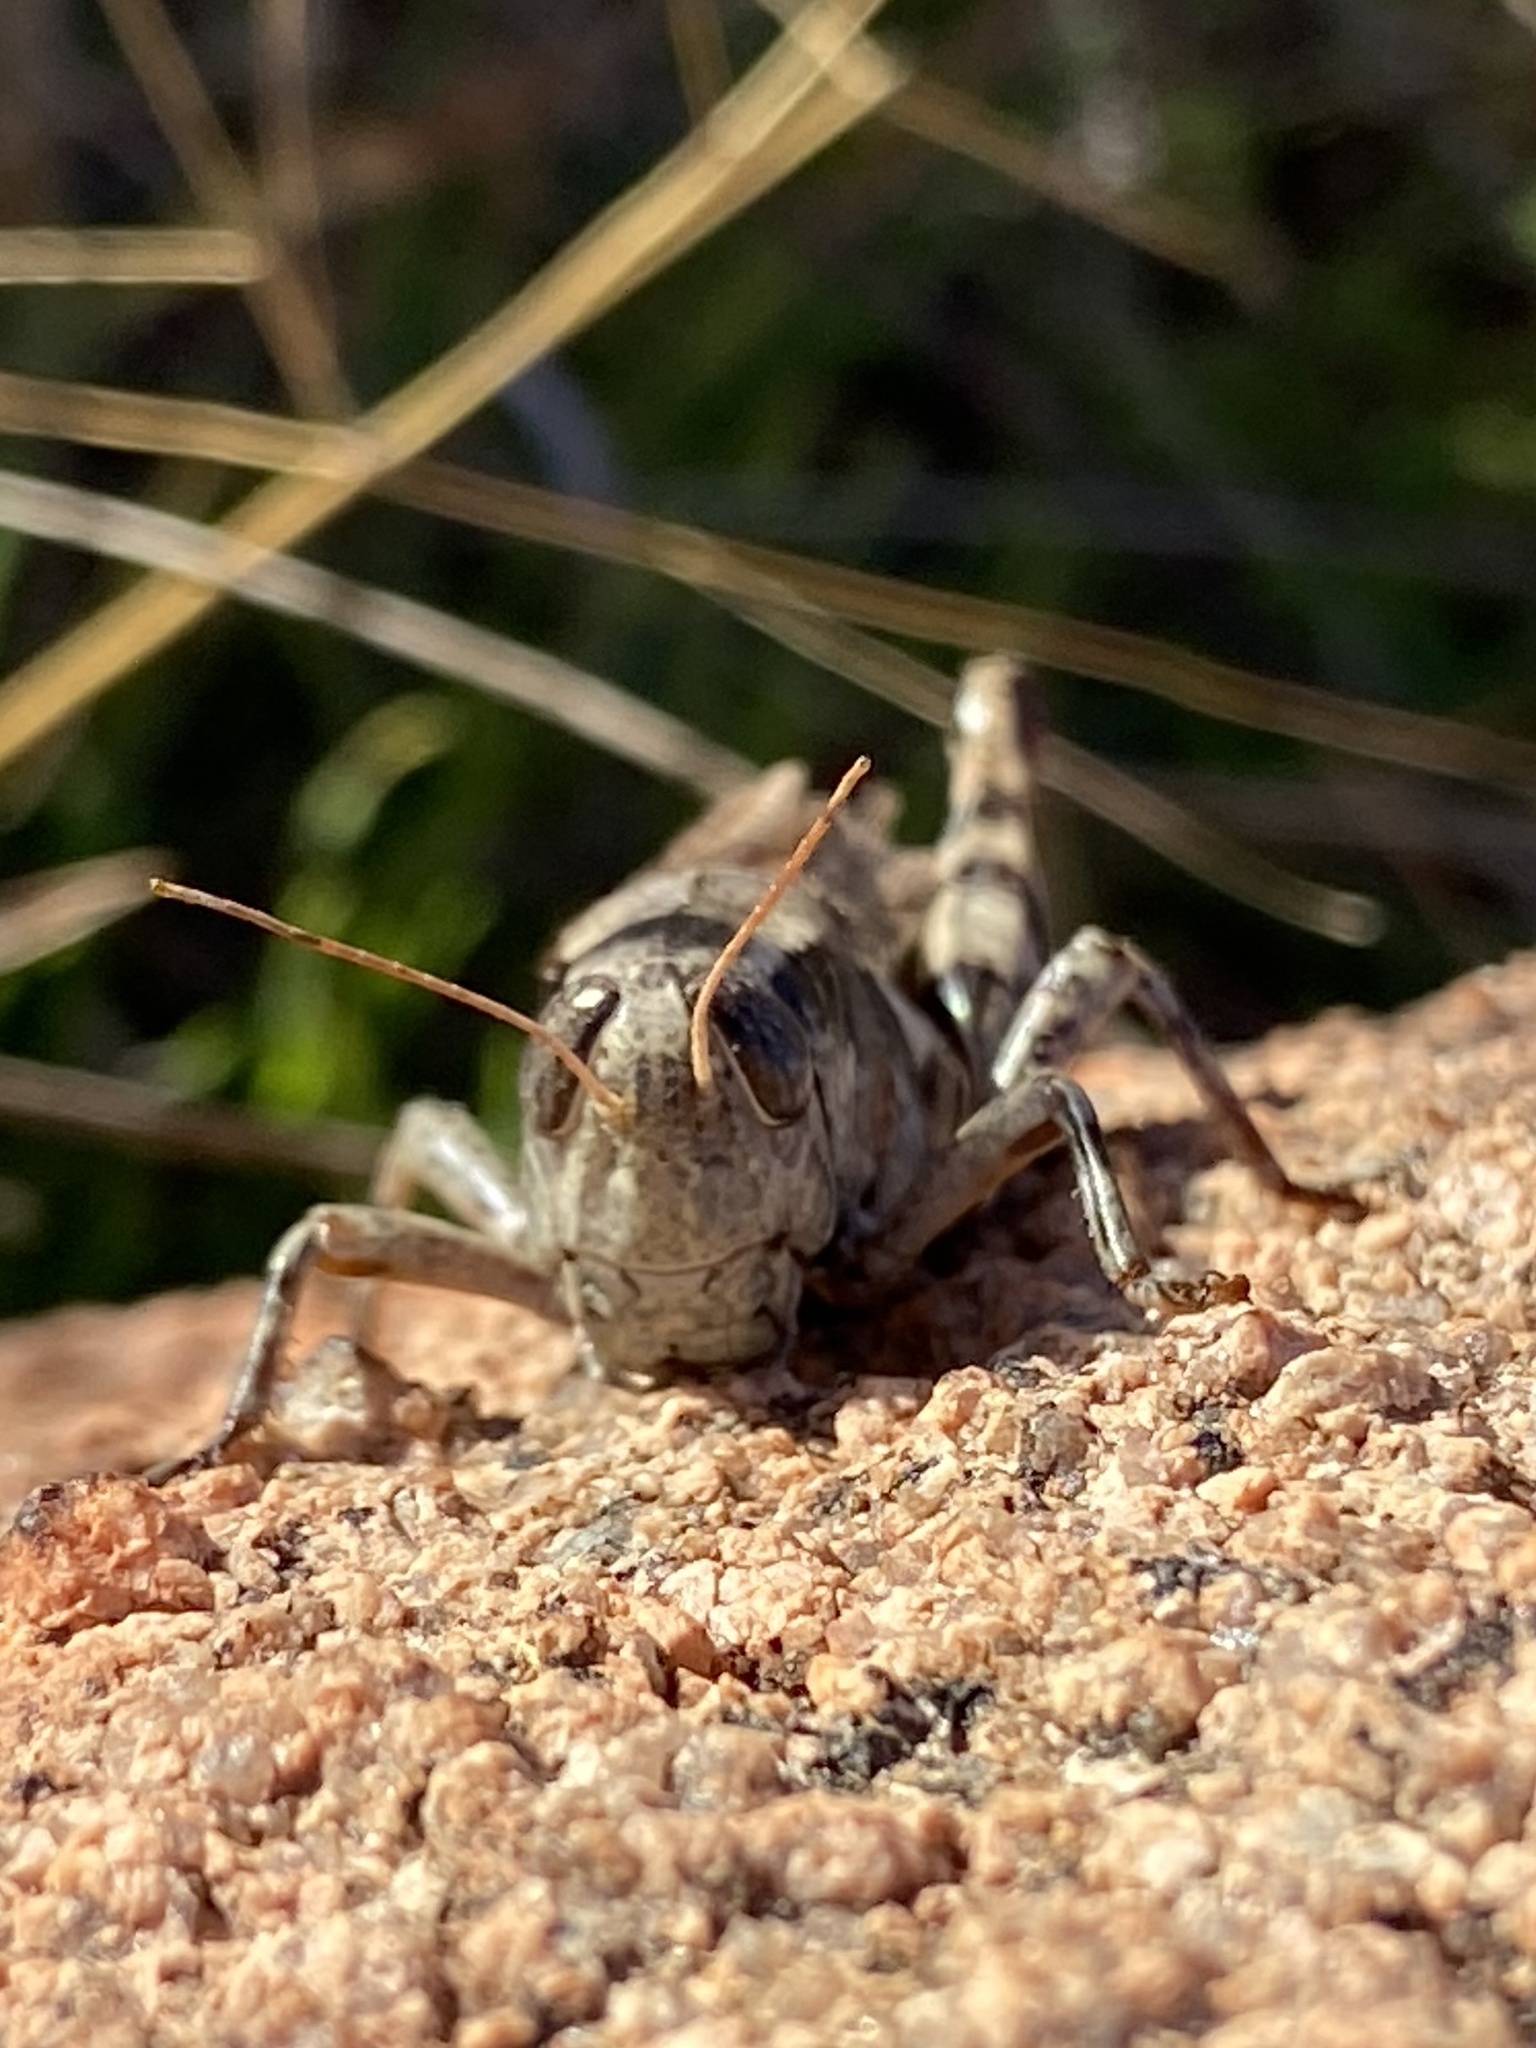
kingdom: Animalia
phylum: Arthropoda
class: Insecta
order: Orthoptera
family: Acrididae
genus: Melanoplus
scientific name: Melanoplus ponderosus
